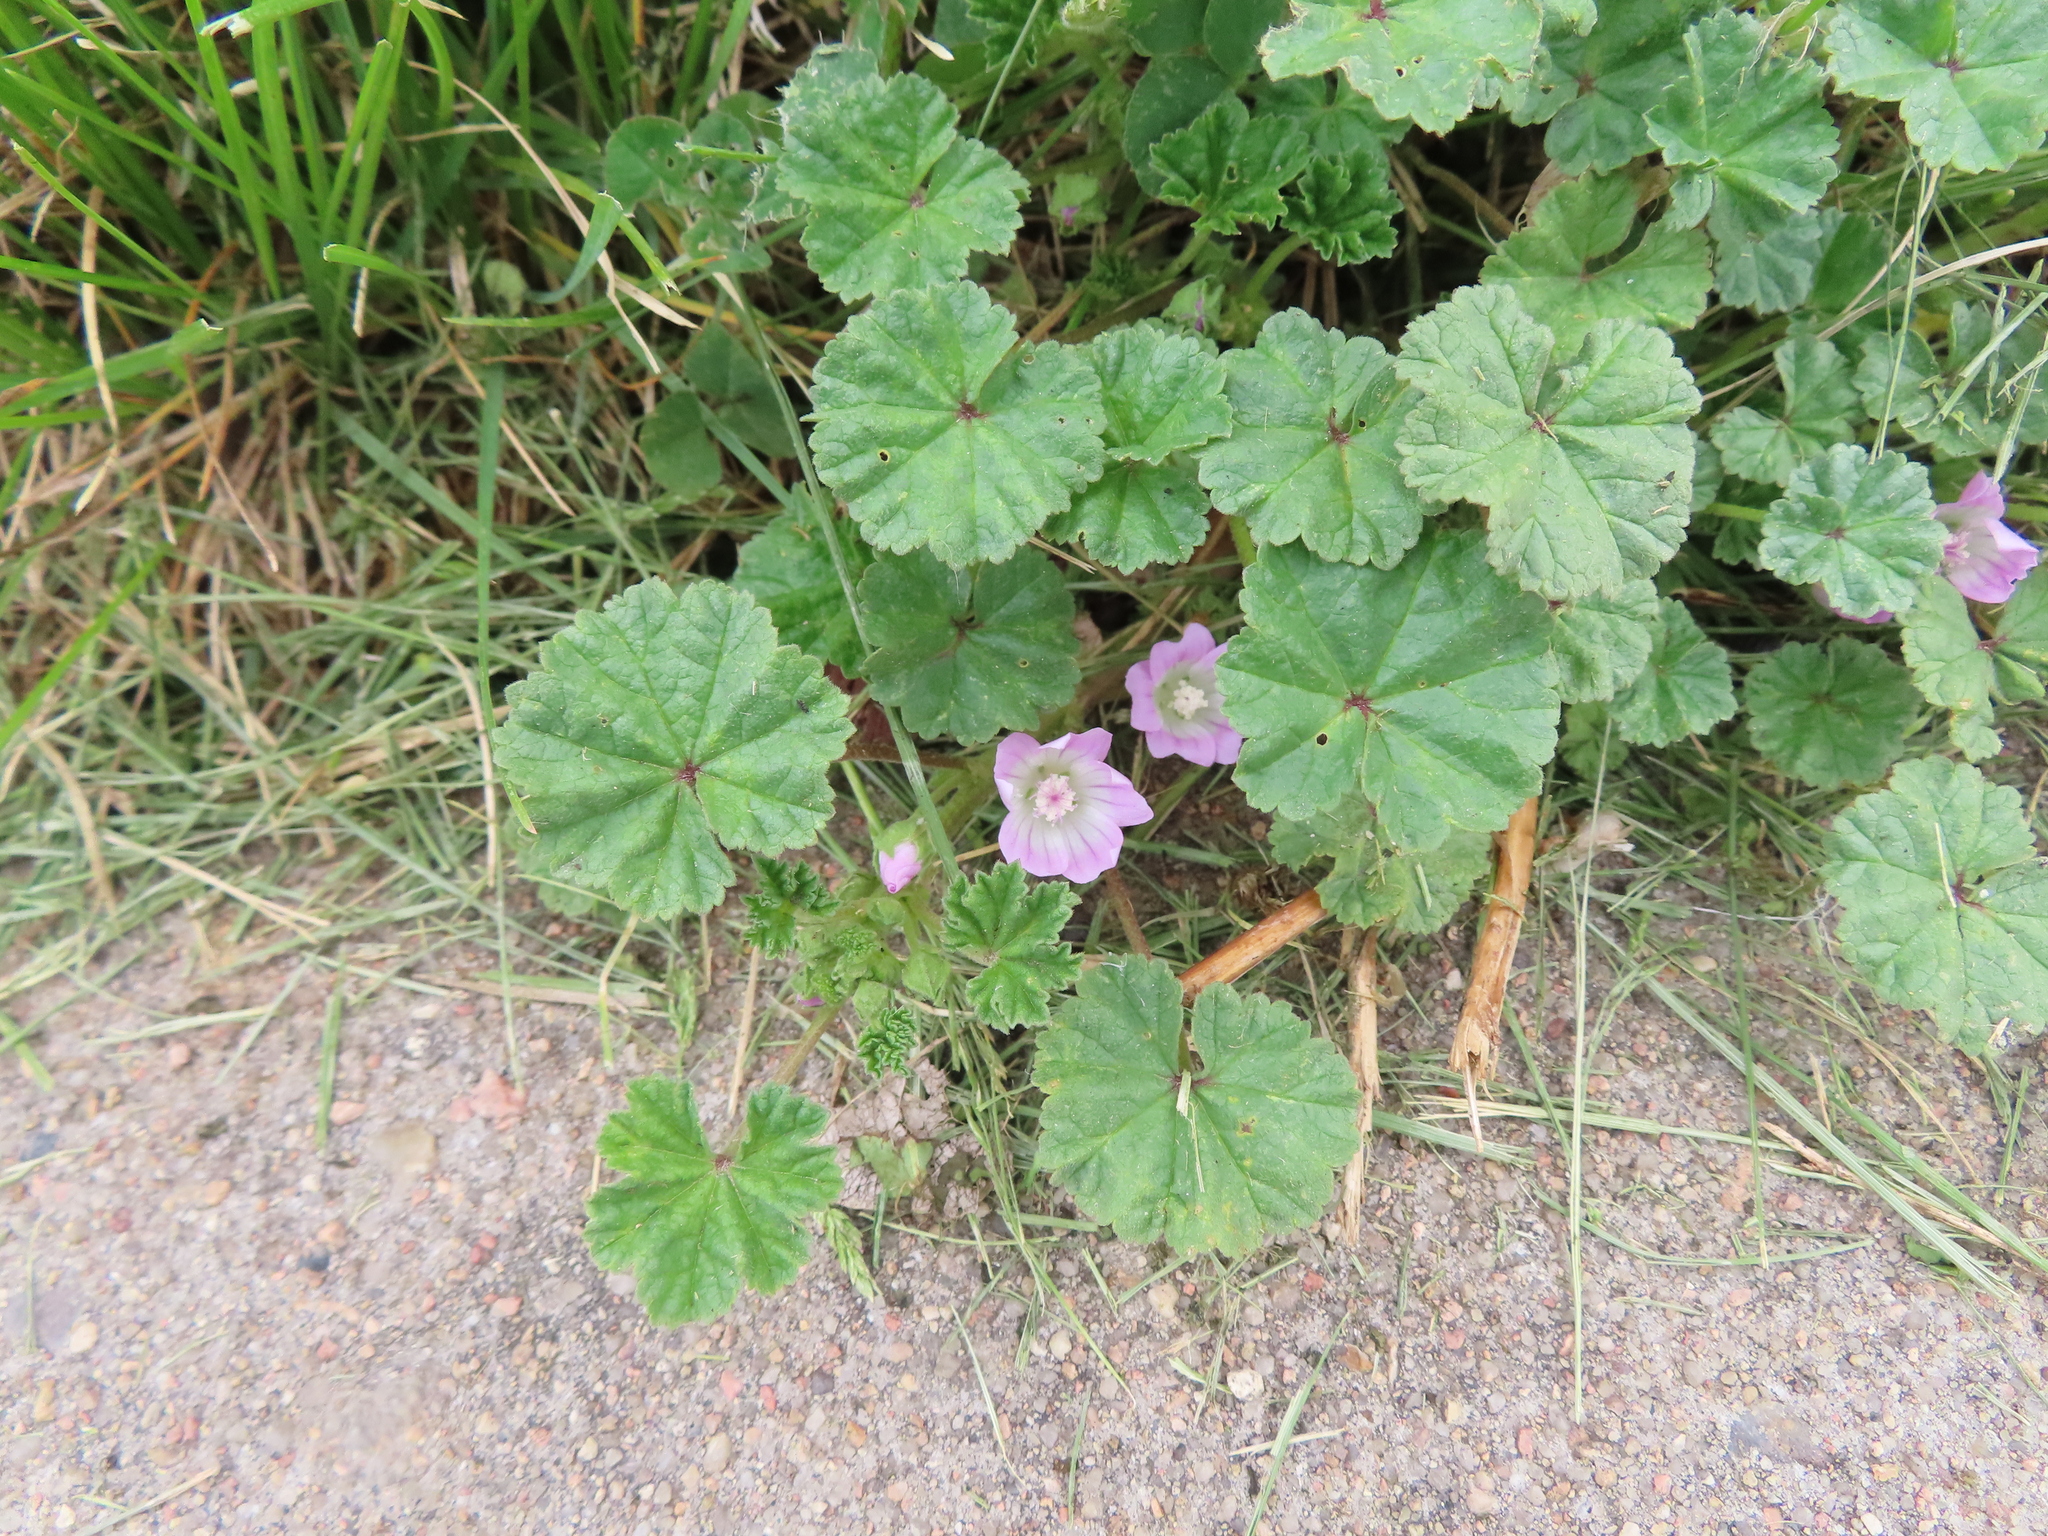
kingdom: Plantae
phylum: Tracheophyta
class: Magnoliopsida
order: Malvales
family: Malvaceae
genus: Malva
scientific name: Malva neglecta
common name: Common mallow
